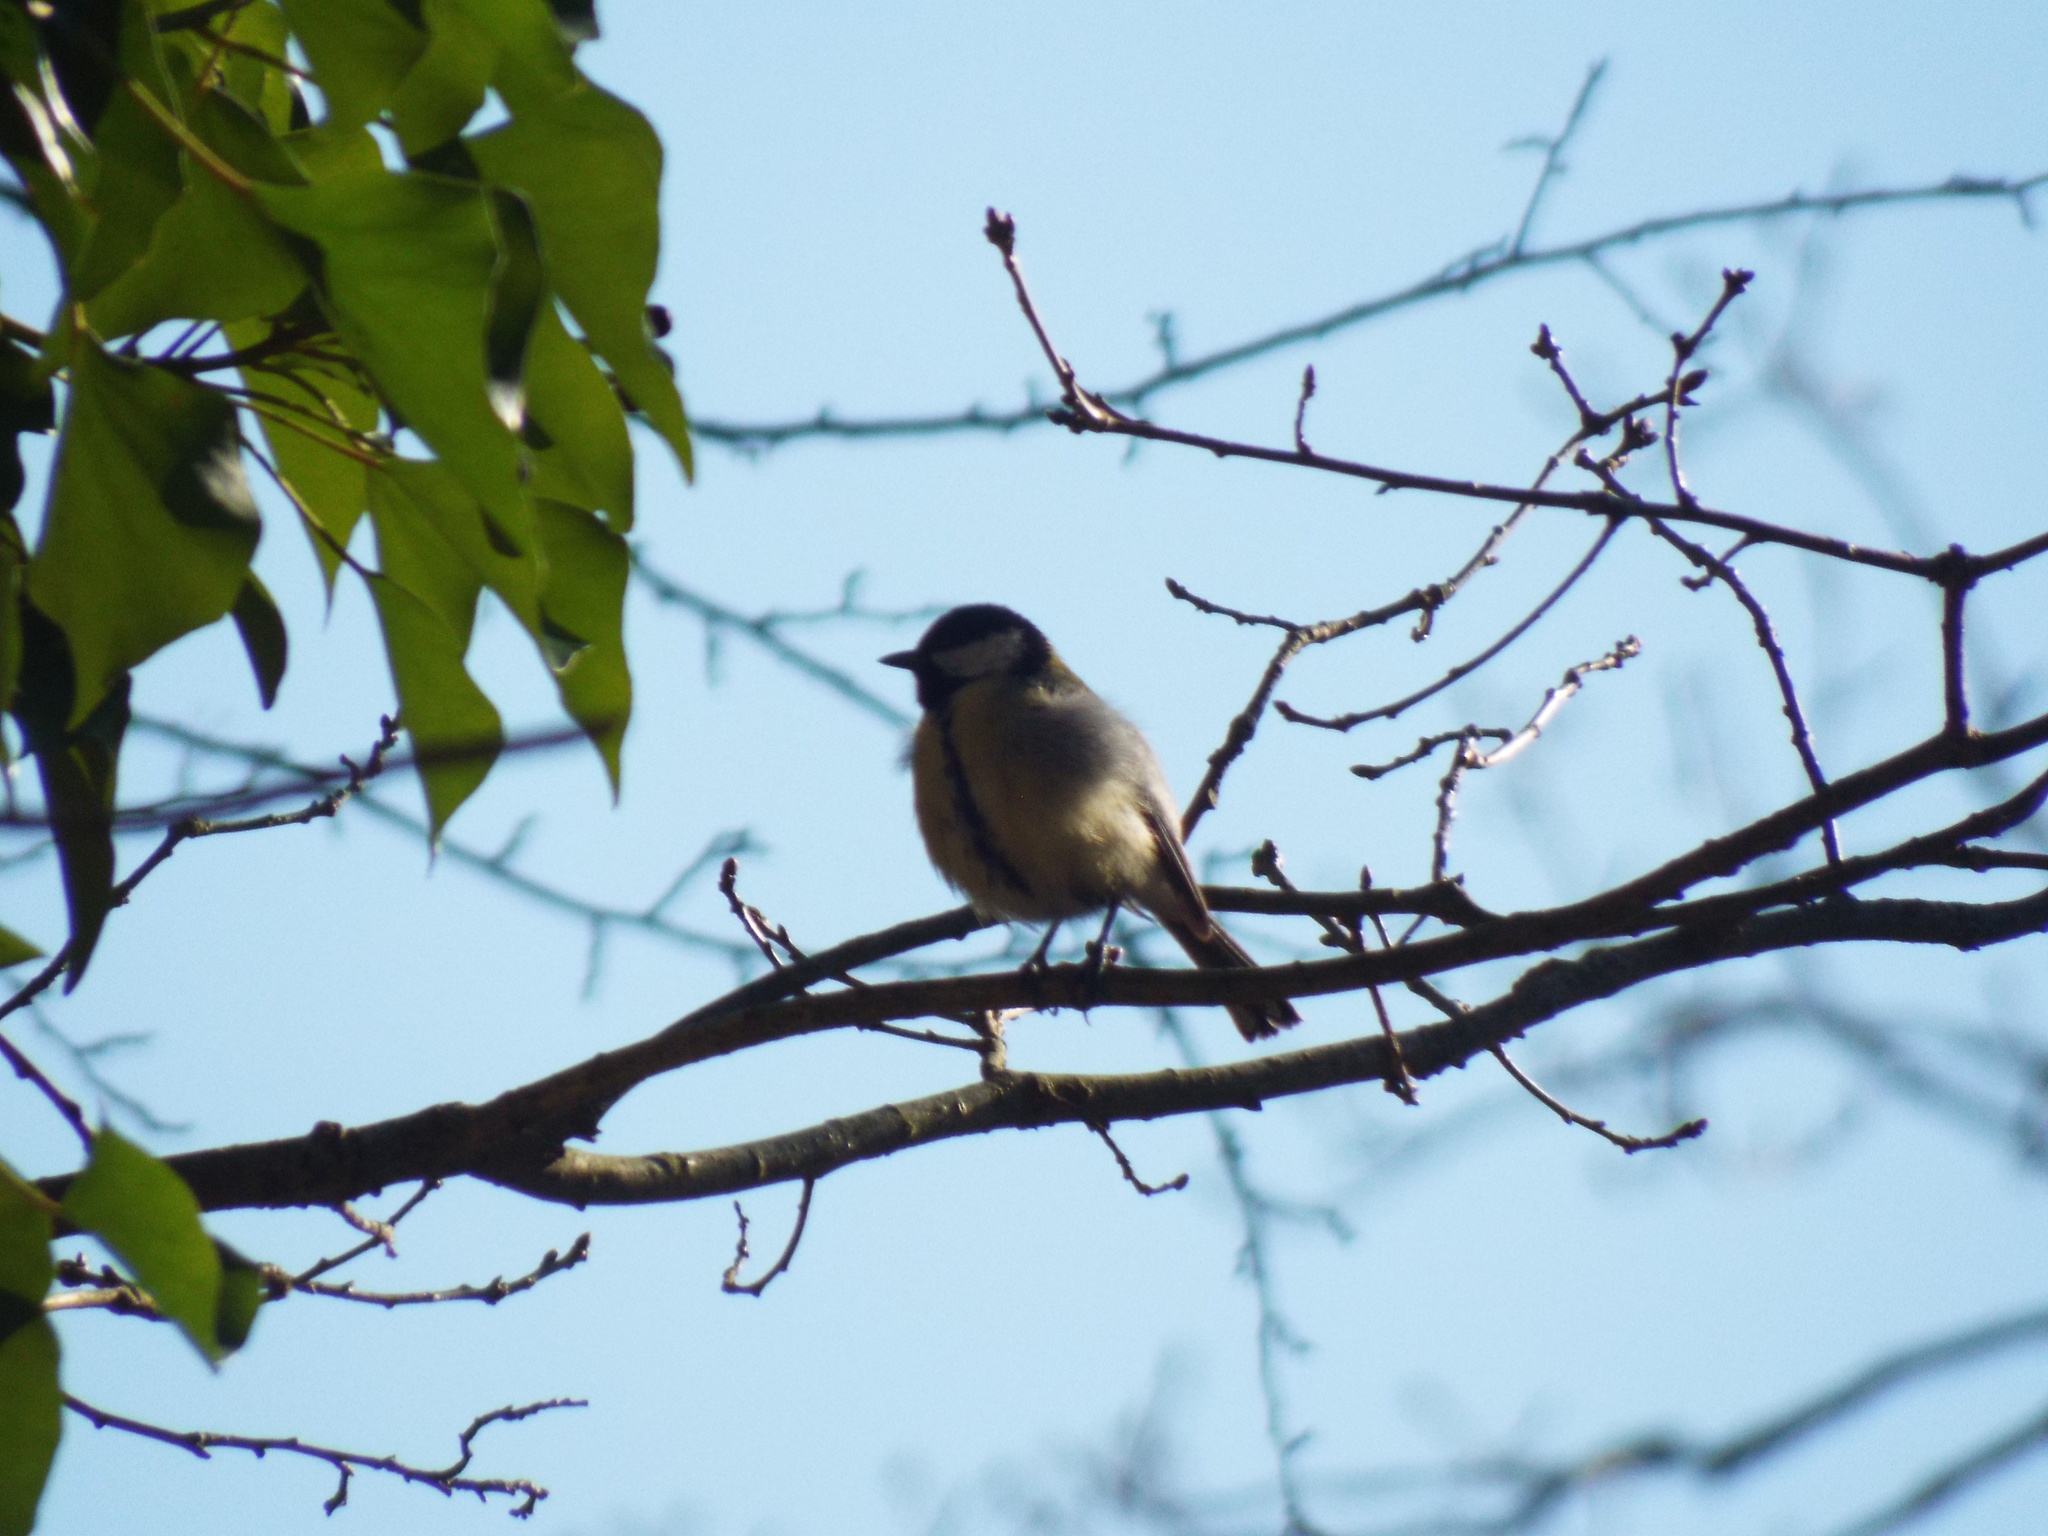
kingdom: Animalia
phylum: Chordata
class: Aves
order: Passeriformes
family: Paridae
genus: Parus
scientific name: Parus major
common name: Great tit
